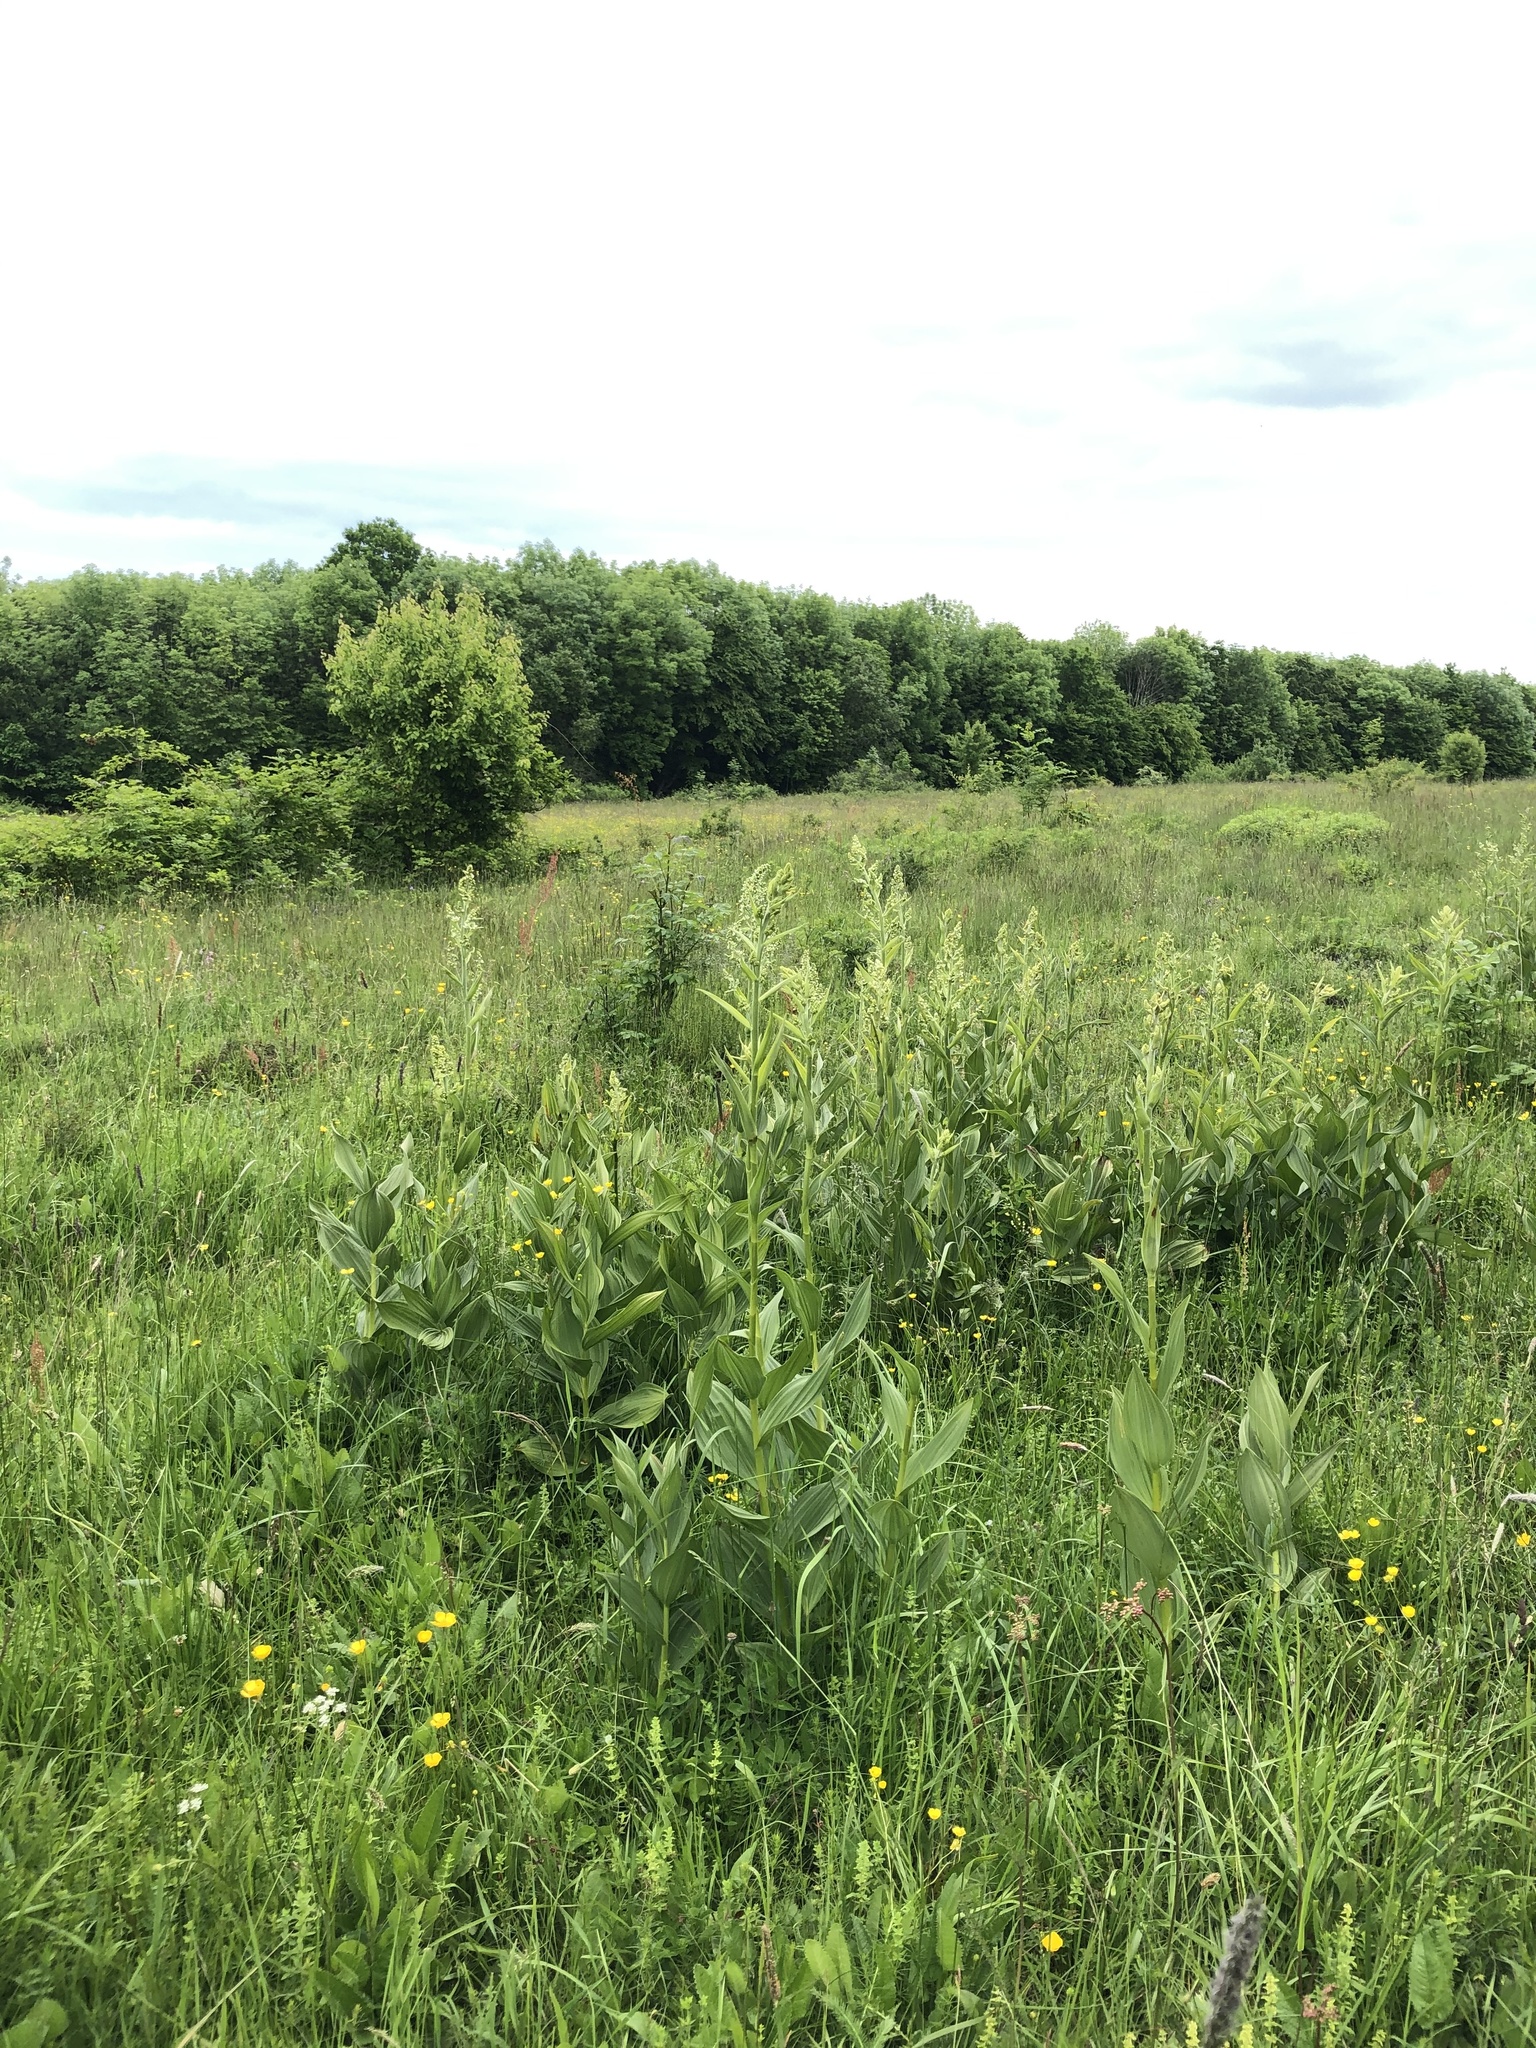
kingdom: Plantae
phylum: Tracheophyta
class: Liliopsida
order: Liliales
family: Melanthiaceae
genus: Veratrum
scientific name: Veratrum album
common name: White veratrum
